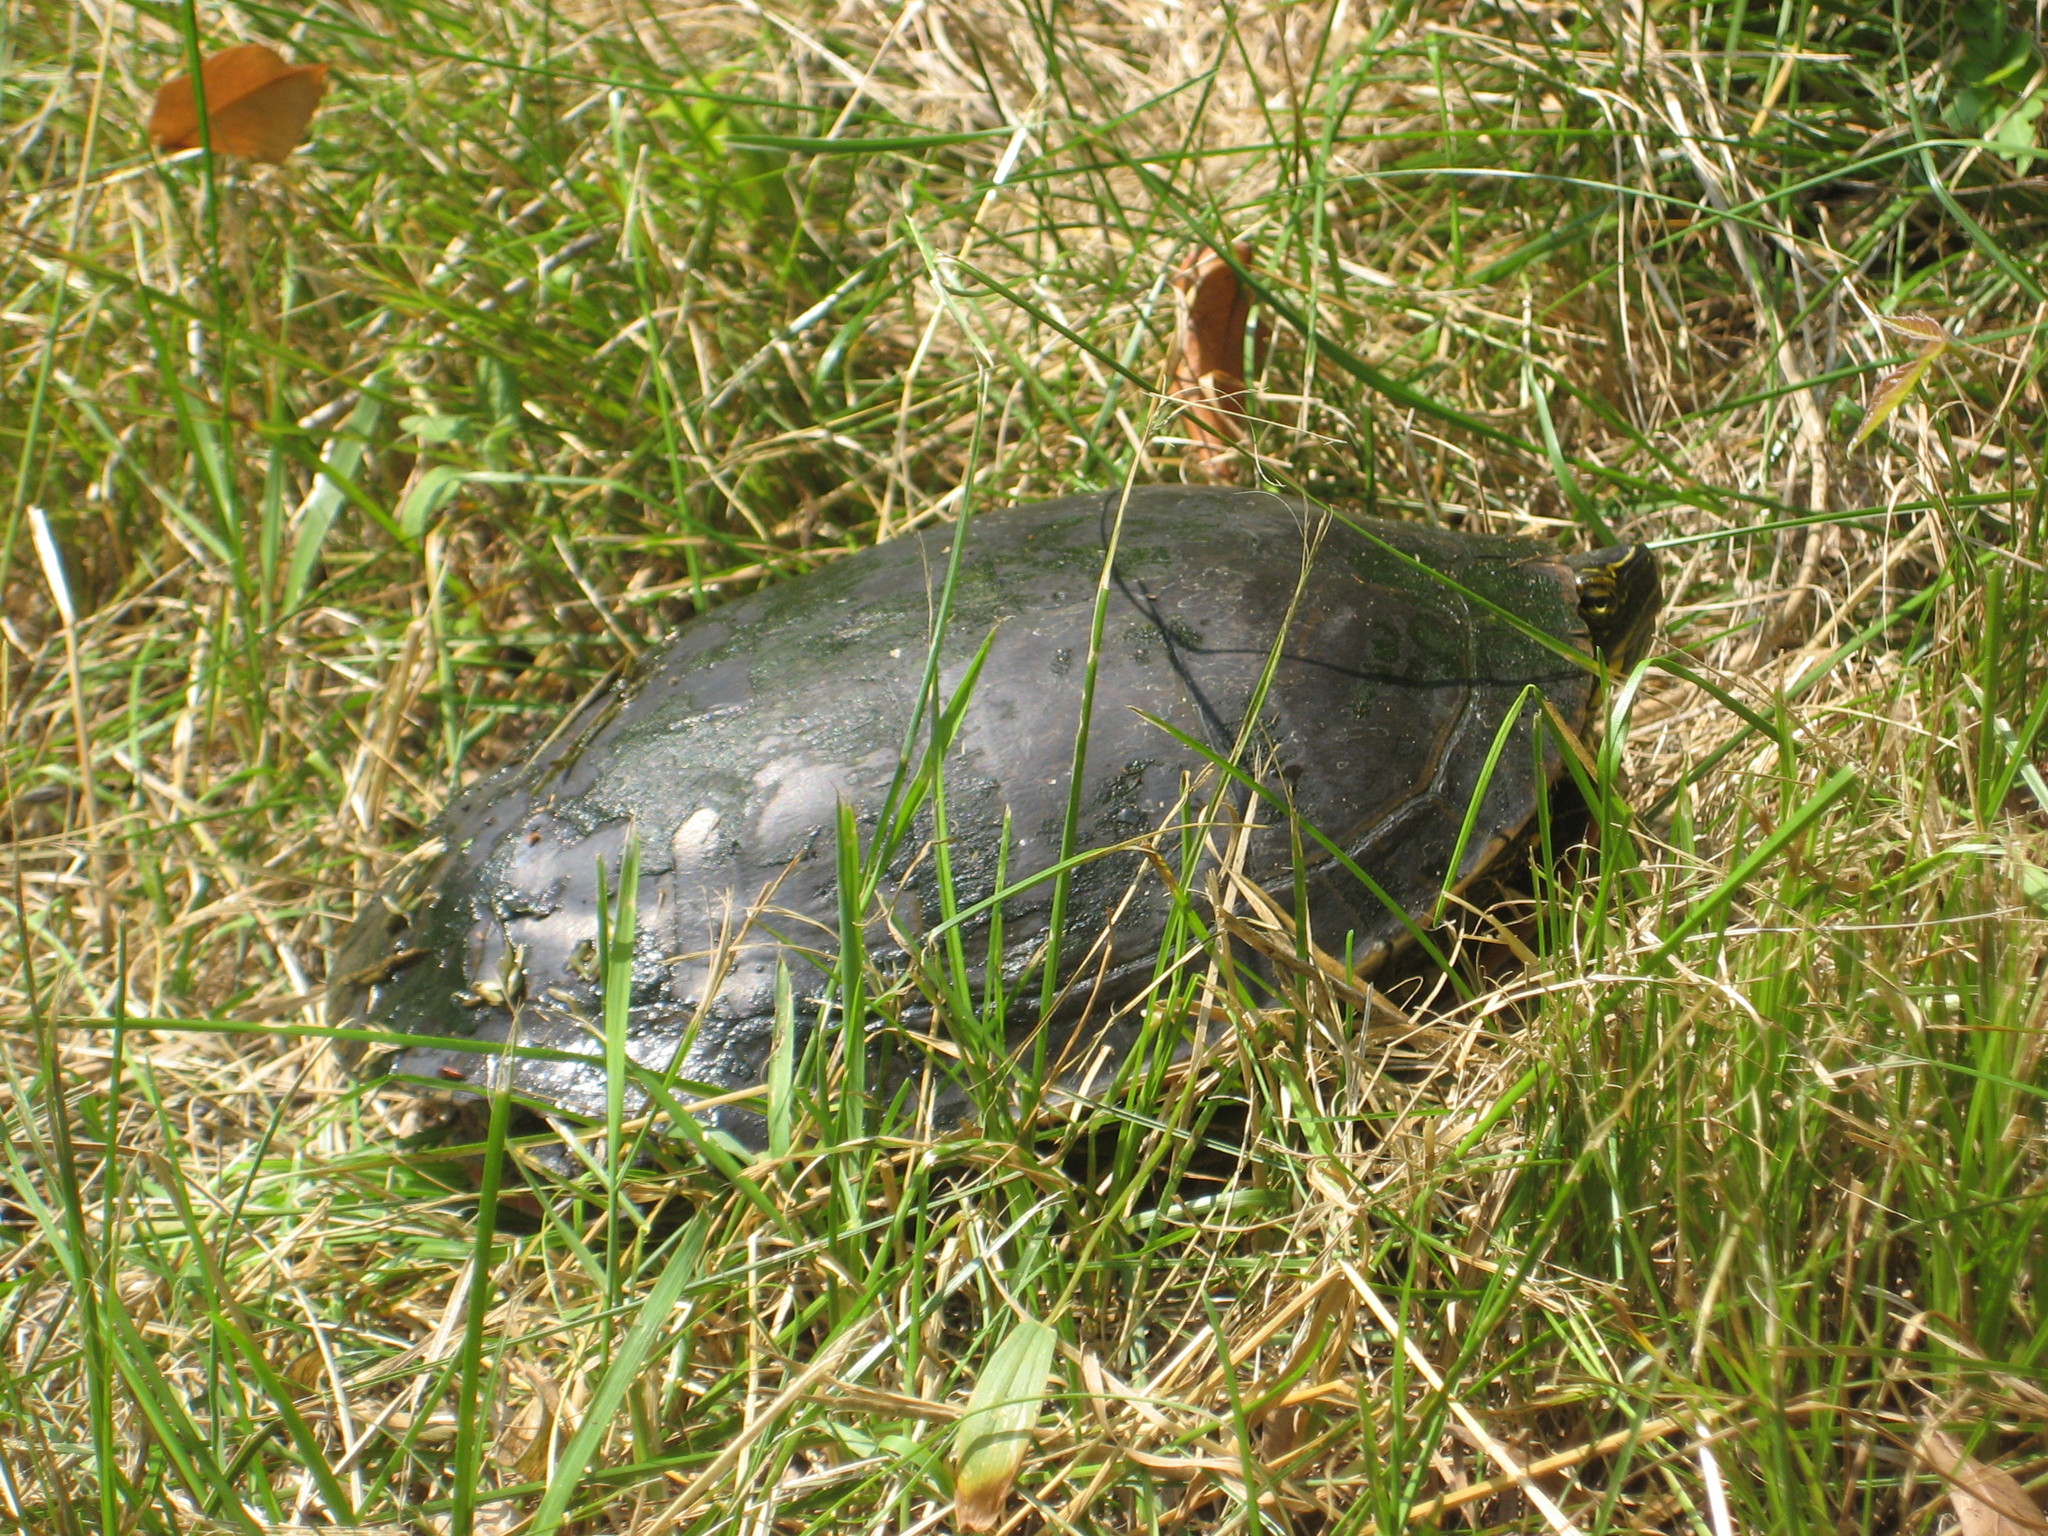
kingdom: Animalia
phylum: Chordata
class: Testudines
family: Emydidae
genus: Chrysemys
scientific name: Chrysemys picta
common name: Painted turtle
